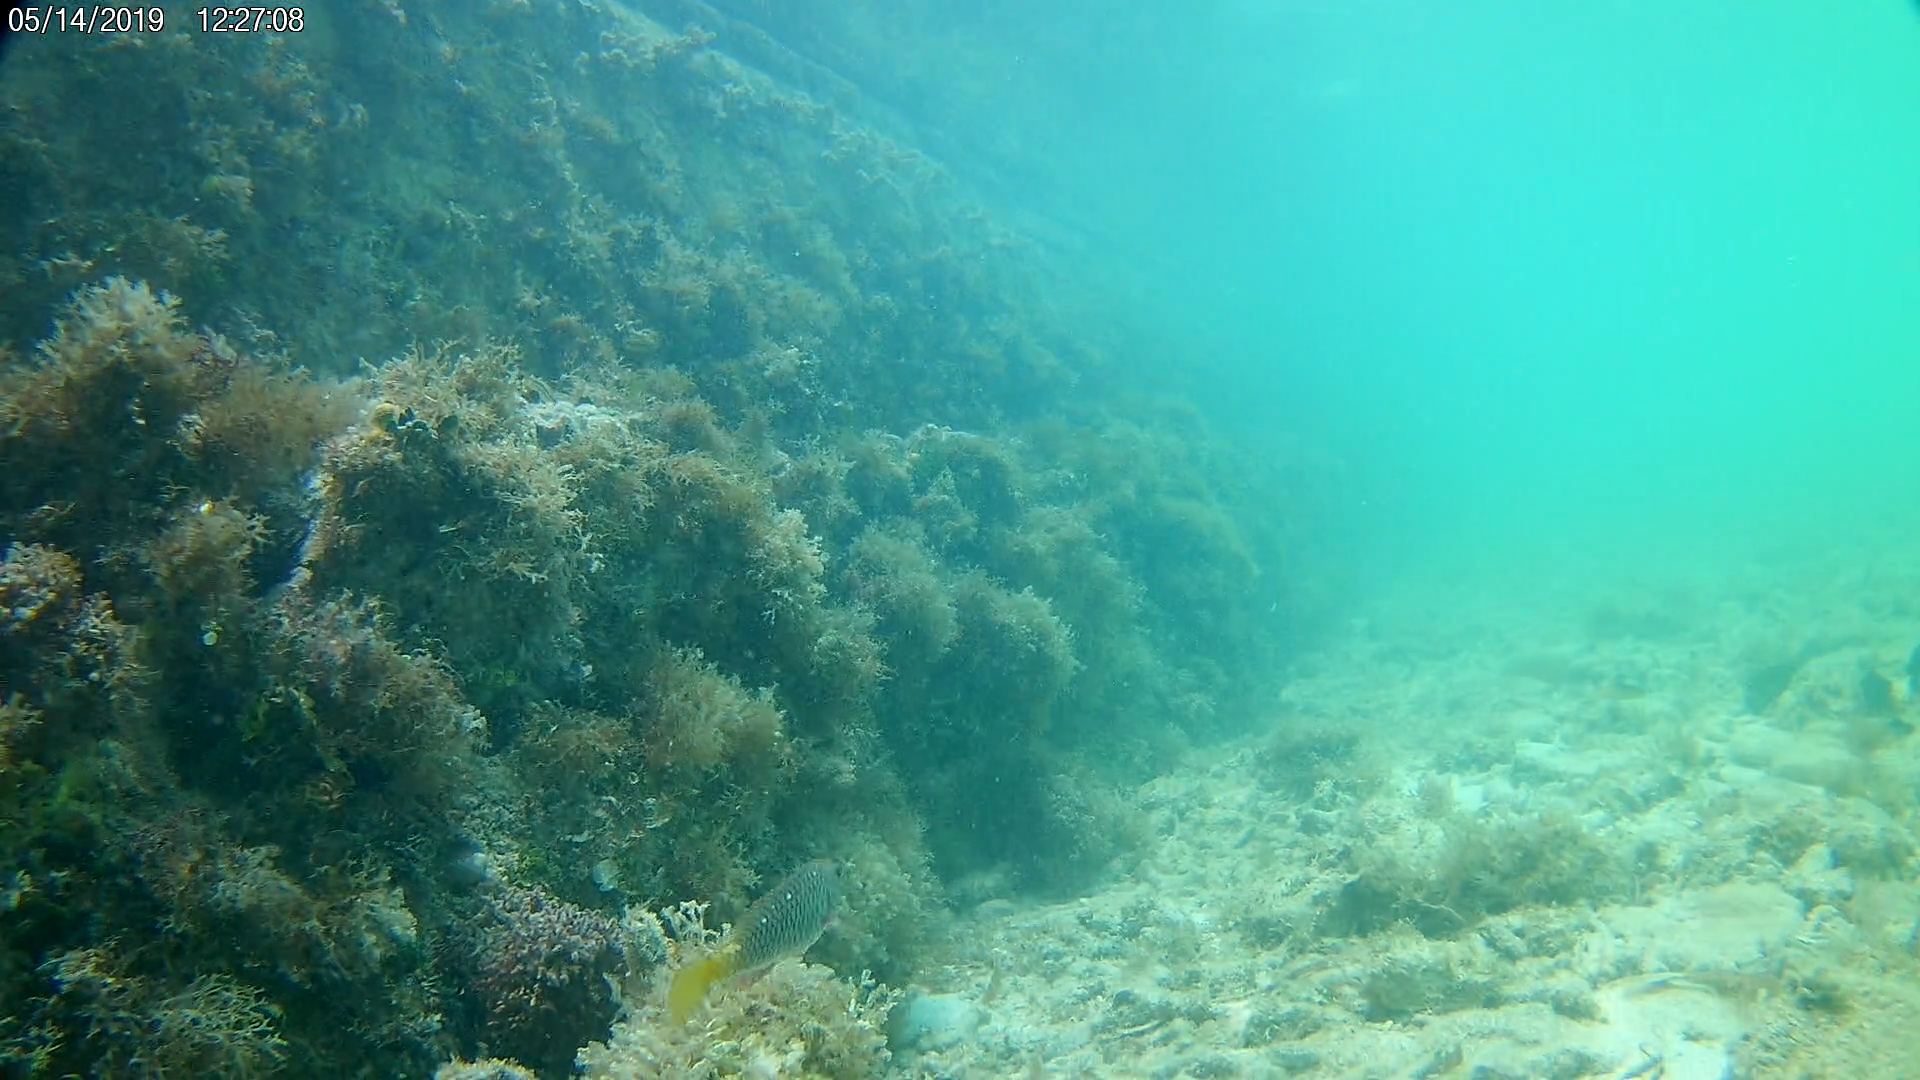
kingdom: Animalia
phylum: Chordata
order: Perciformes
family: Scaridae
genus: Sparisoma
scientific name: Sparisoma rubripinne
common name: Redfin parrotfish
